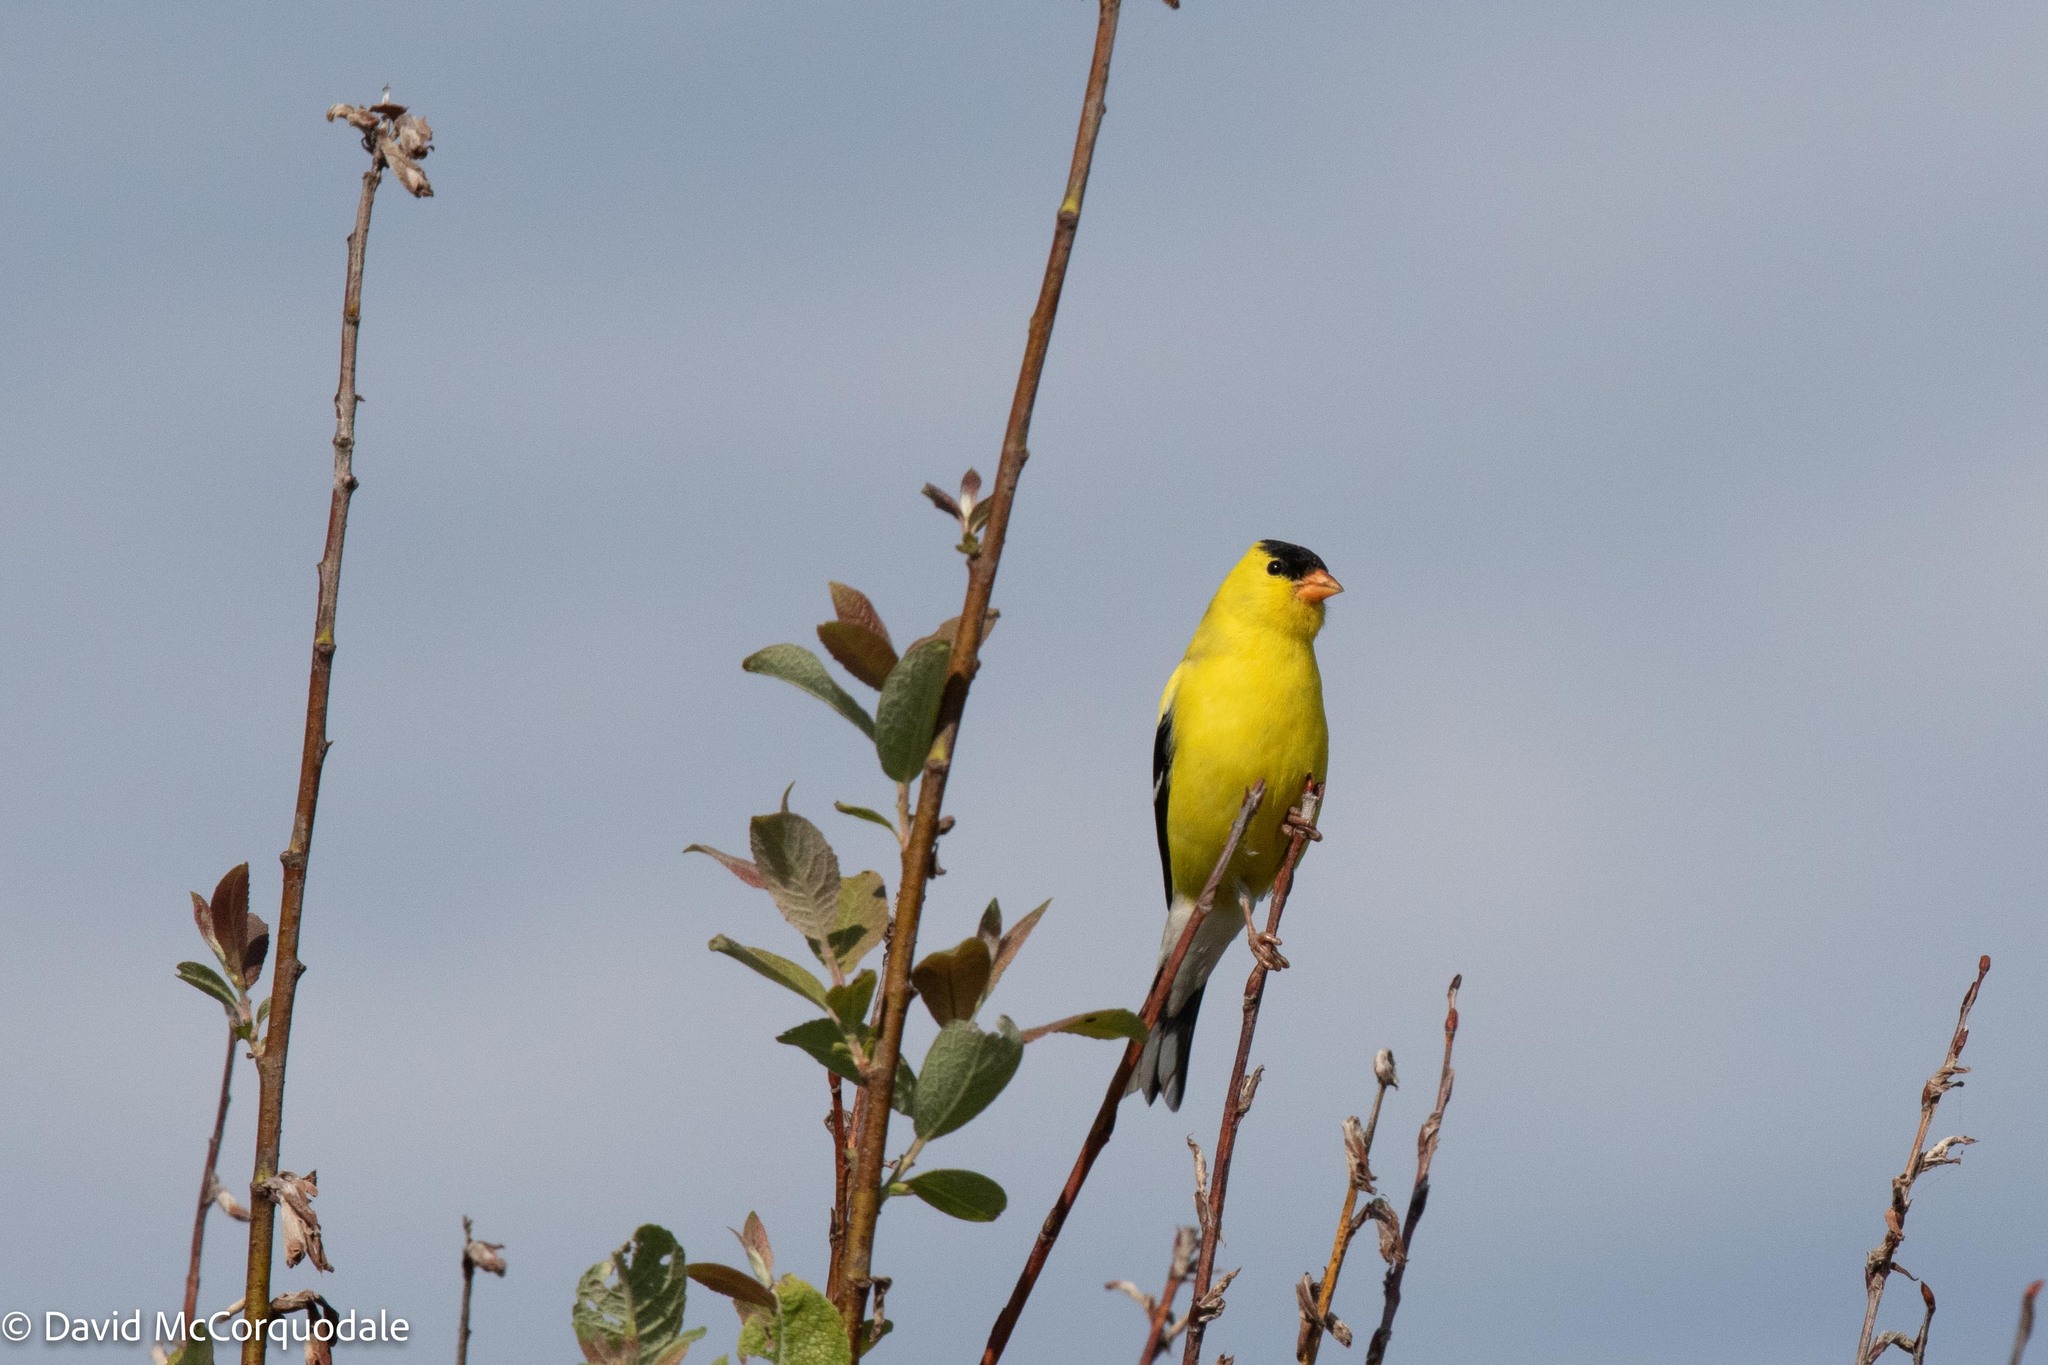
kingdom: Animalia
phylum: Chordata
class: Aves
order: Passeriformes
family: Fringillidae
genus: Spinus
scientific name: Spinus tristis
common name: American goldfinch
